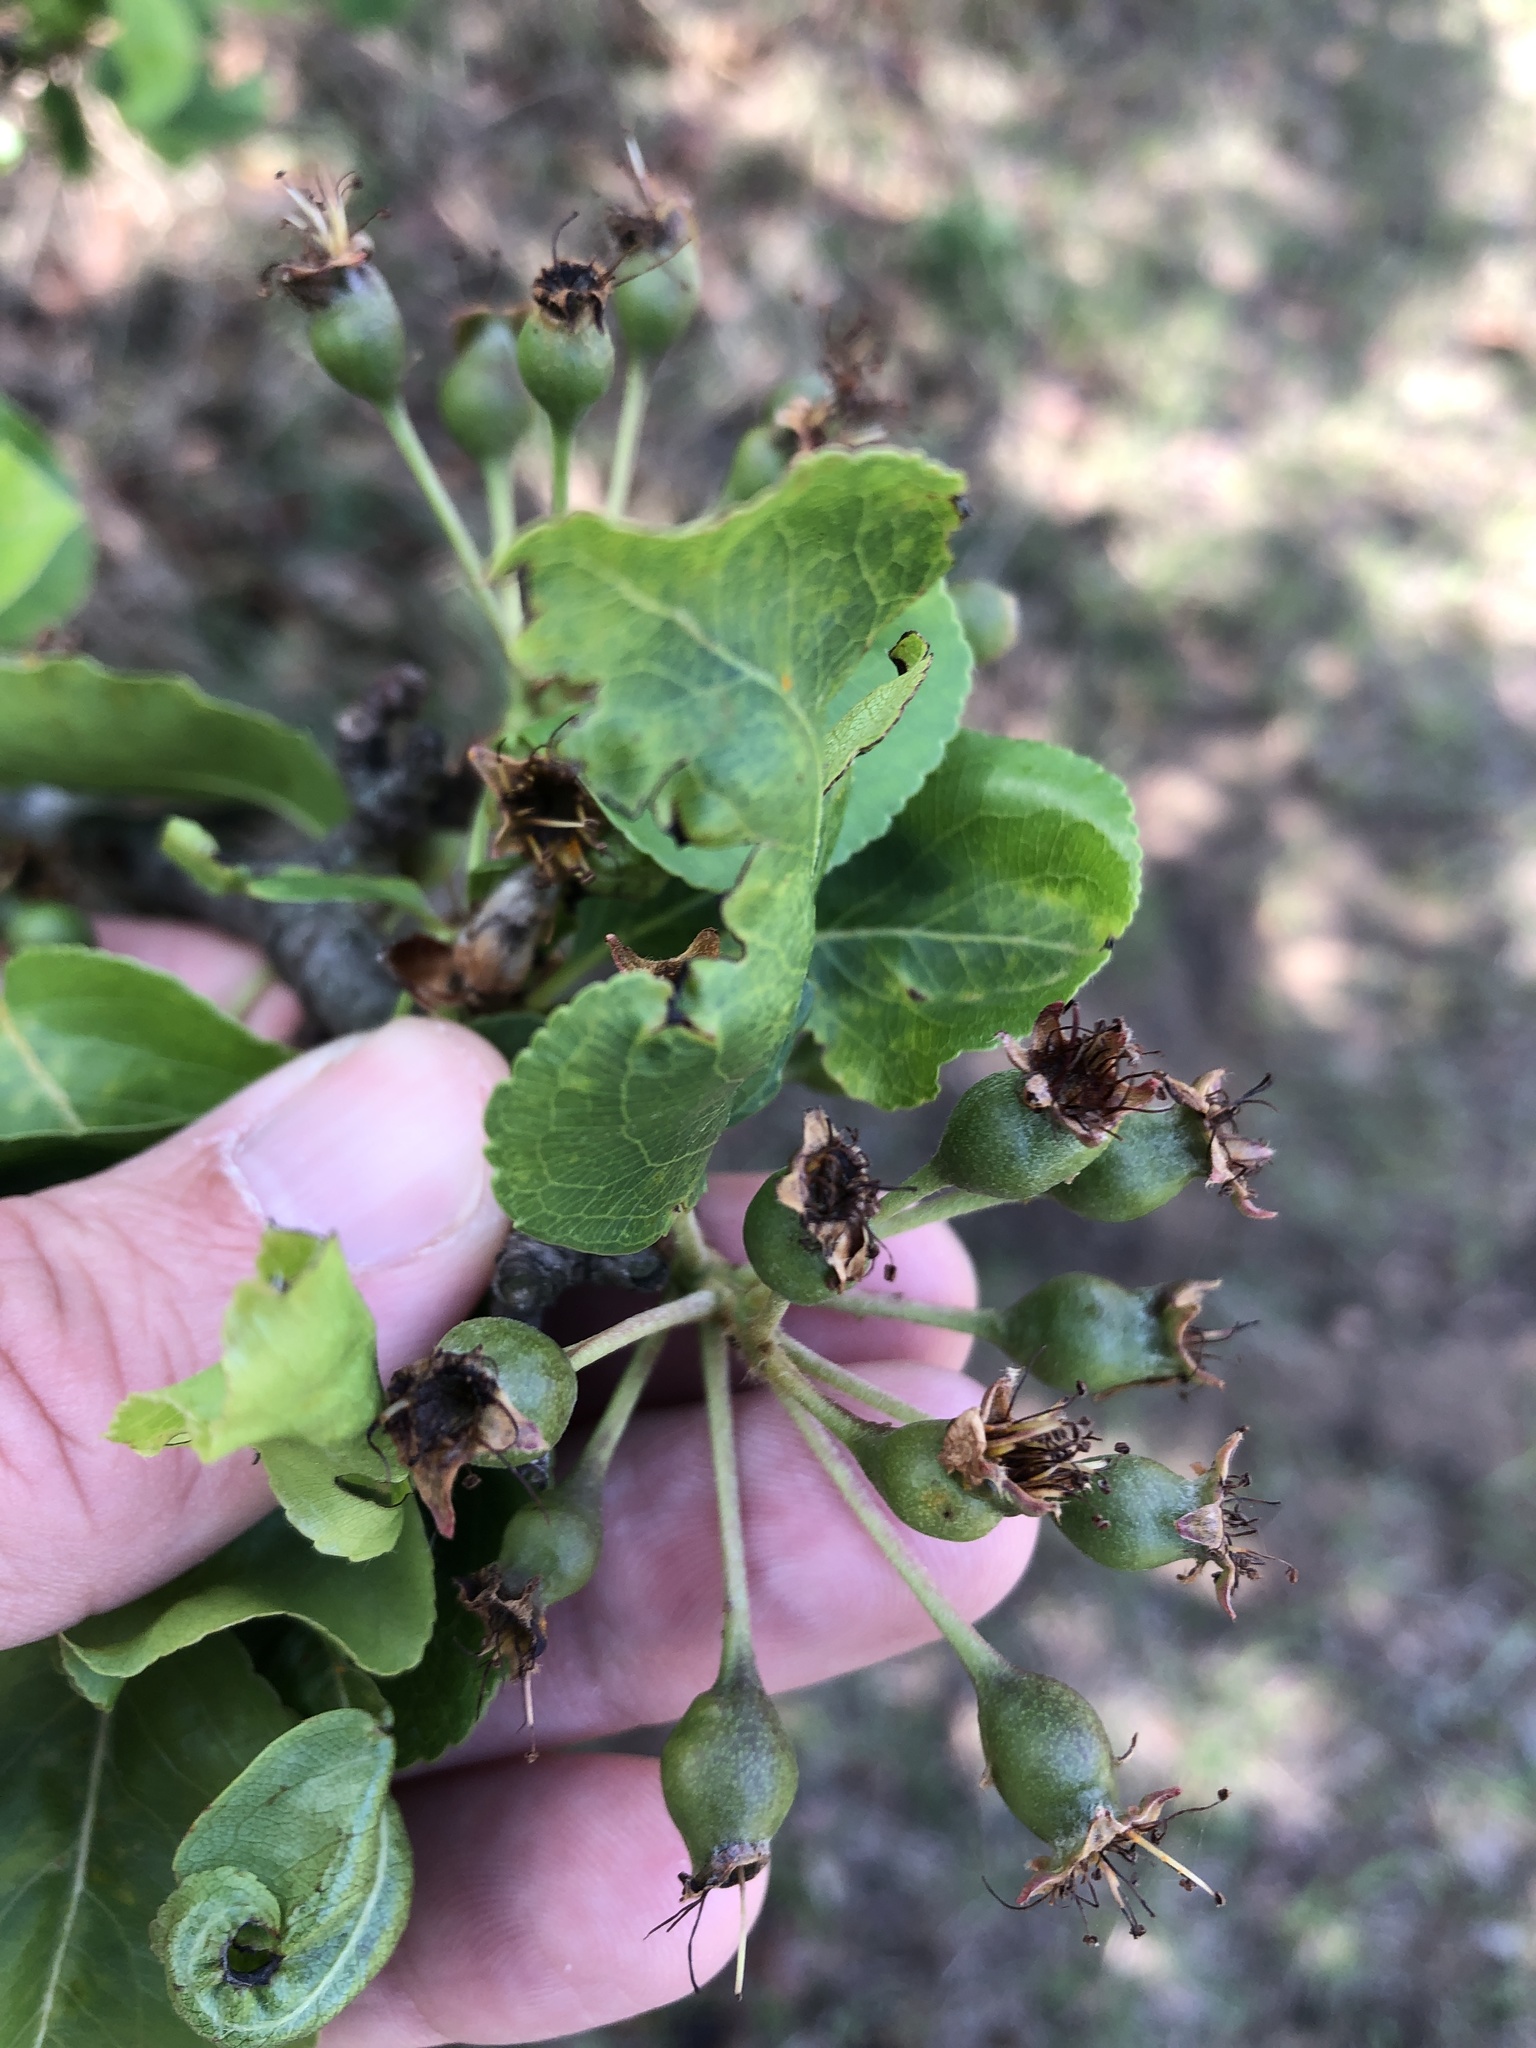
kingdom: Plantae
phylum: Tracheophyta
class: Magnoliopsida
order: Rosales
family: Rosaceae
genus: Pyrus
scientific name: Pyrus calleryana
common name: Callery pear
